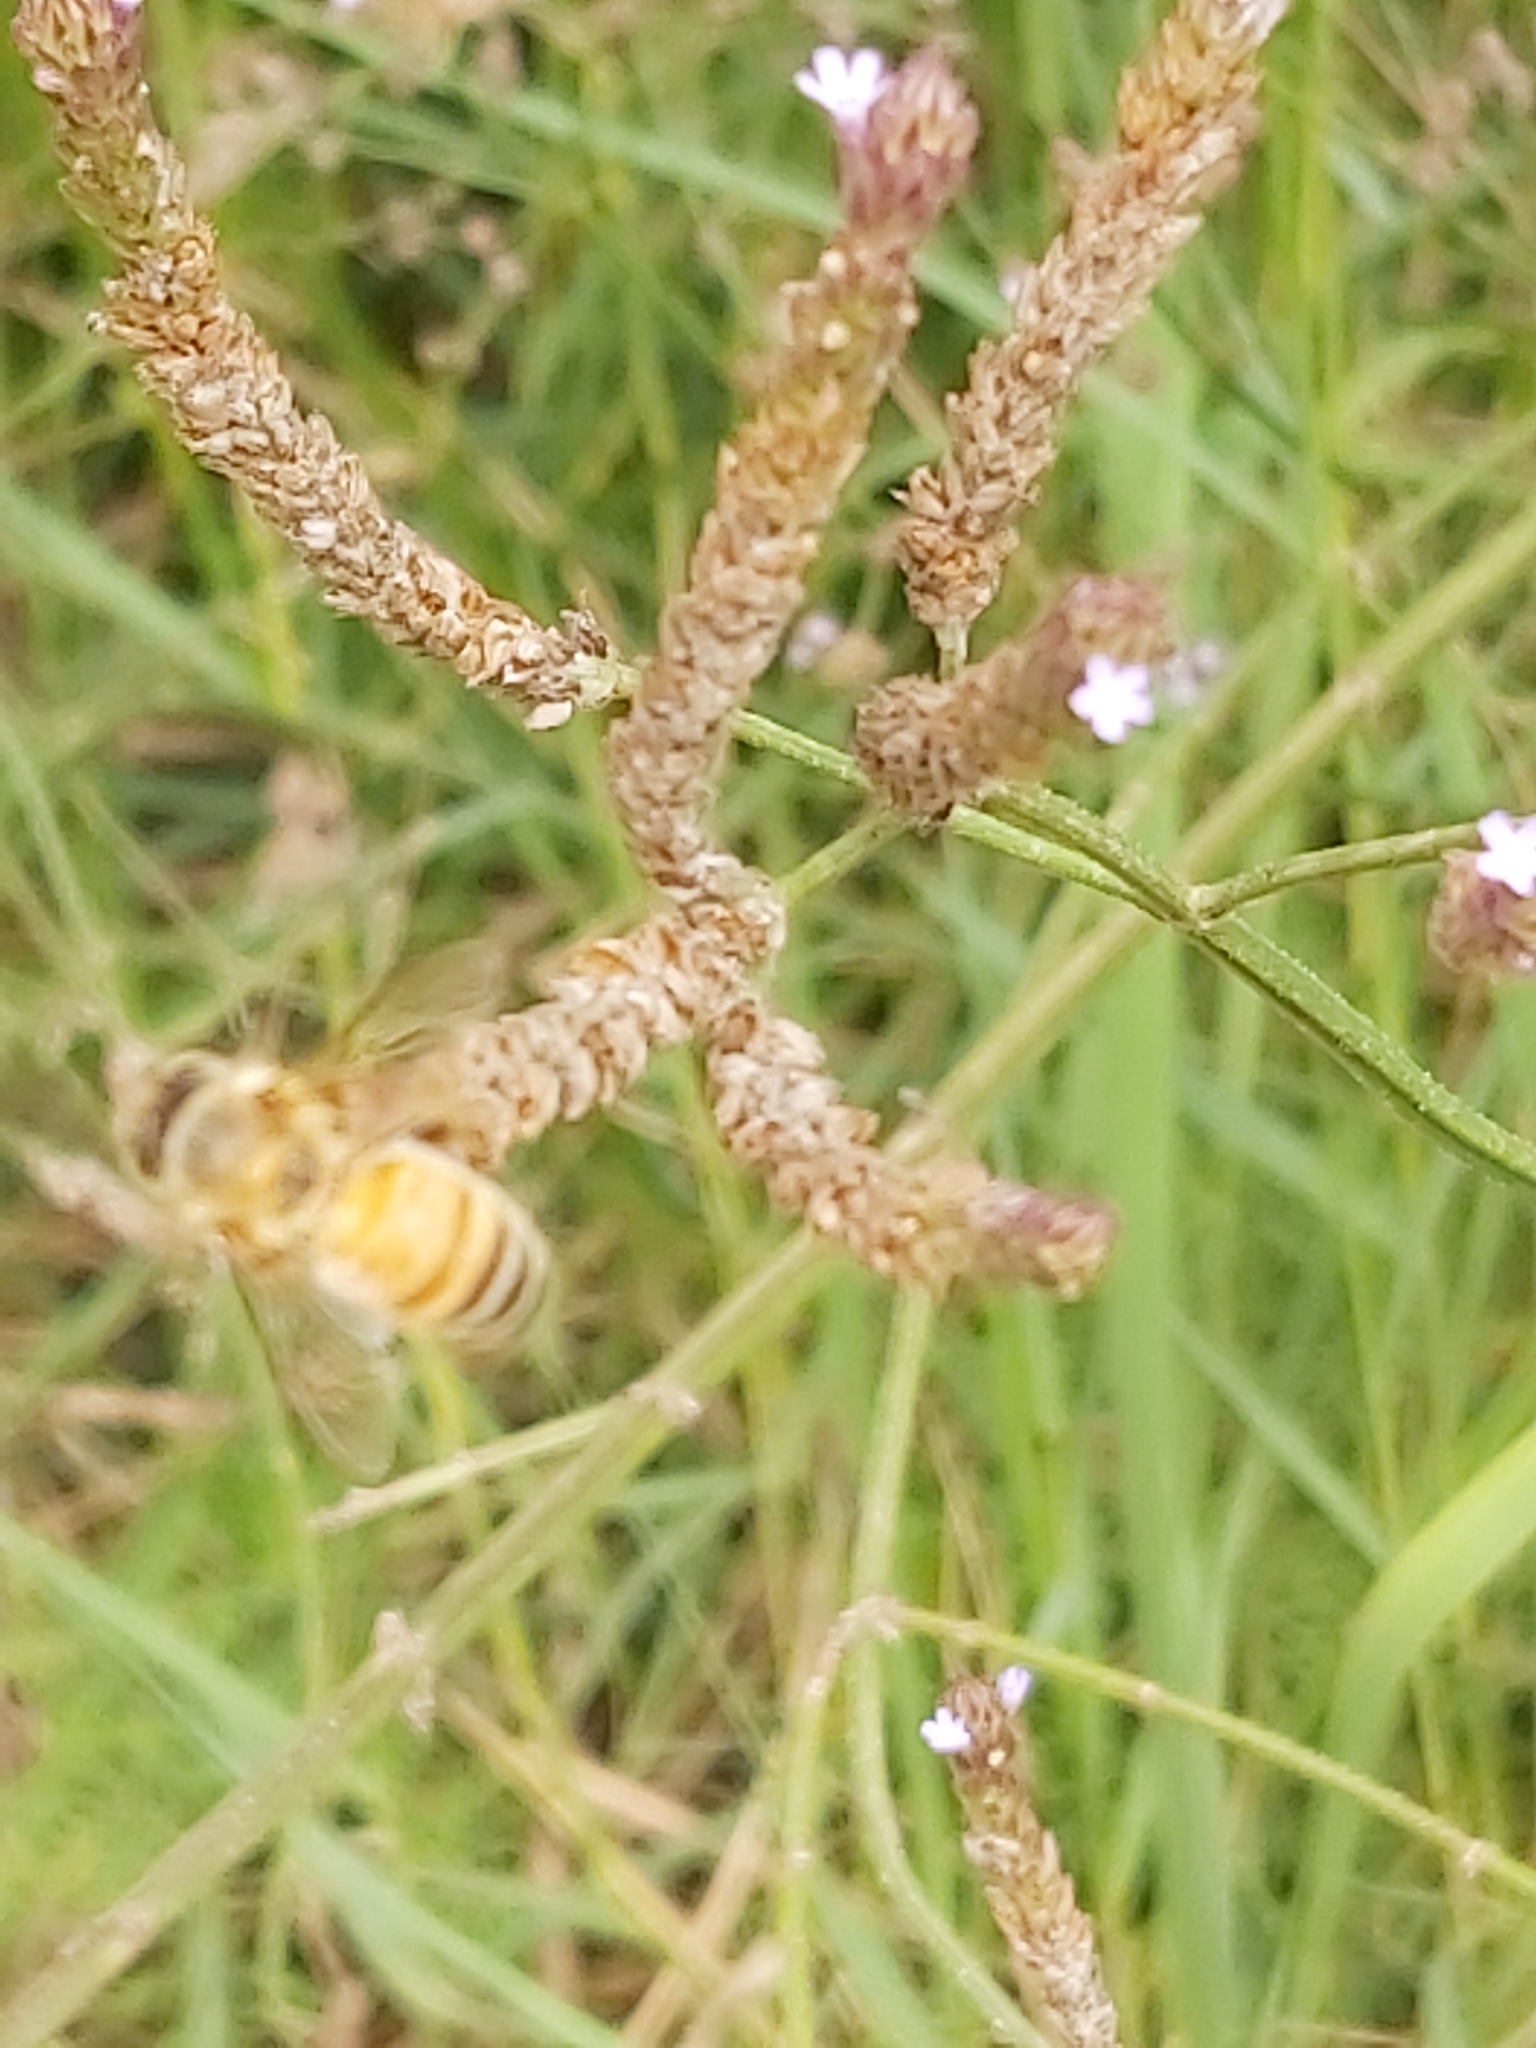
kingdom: Animalia
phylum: Arthropoda
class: Insecta
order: Hymenoptera
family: Apidae
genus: Apis
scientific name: Apis mellifera
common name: Honey bee
